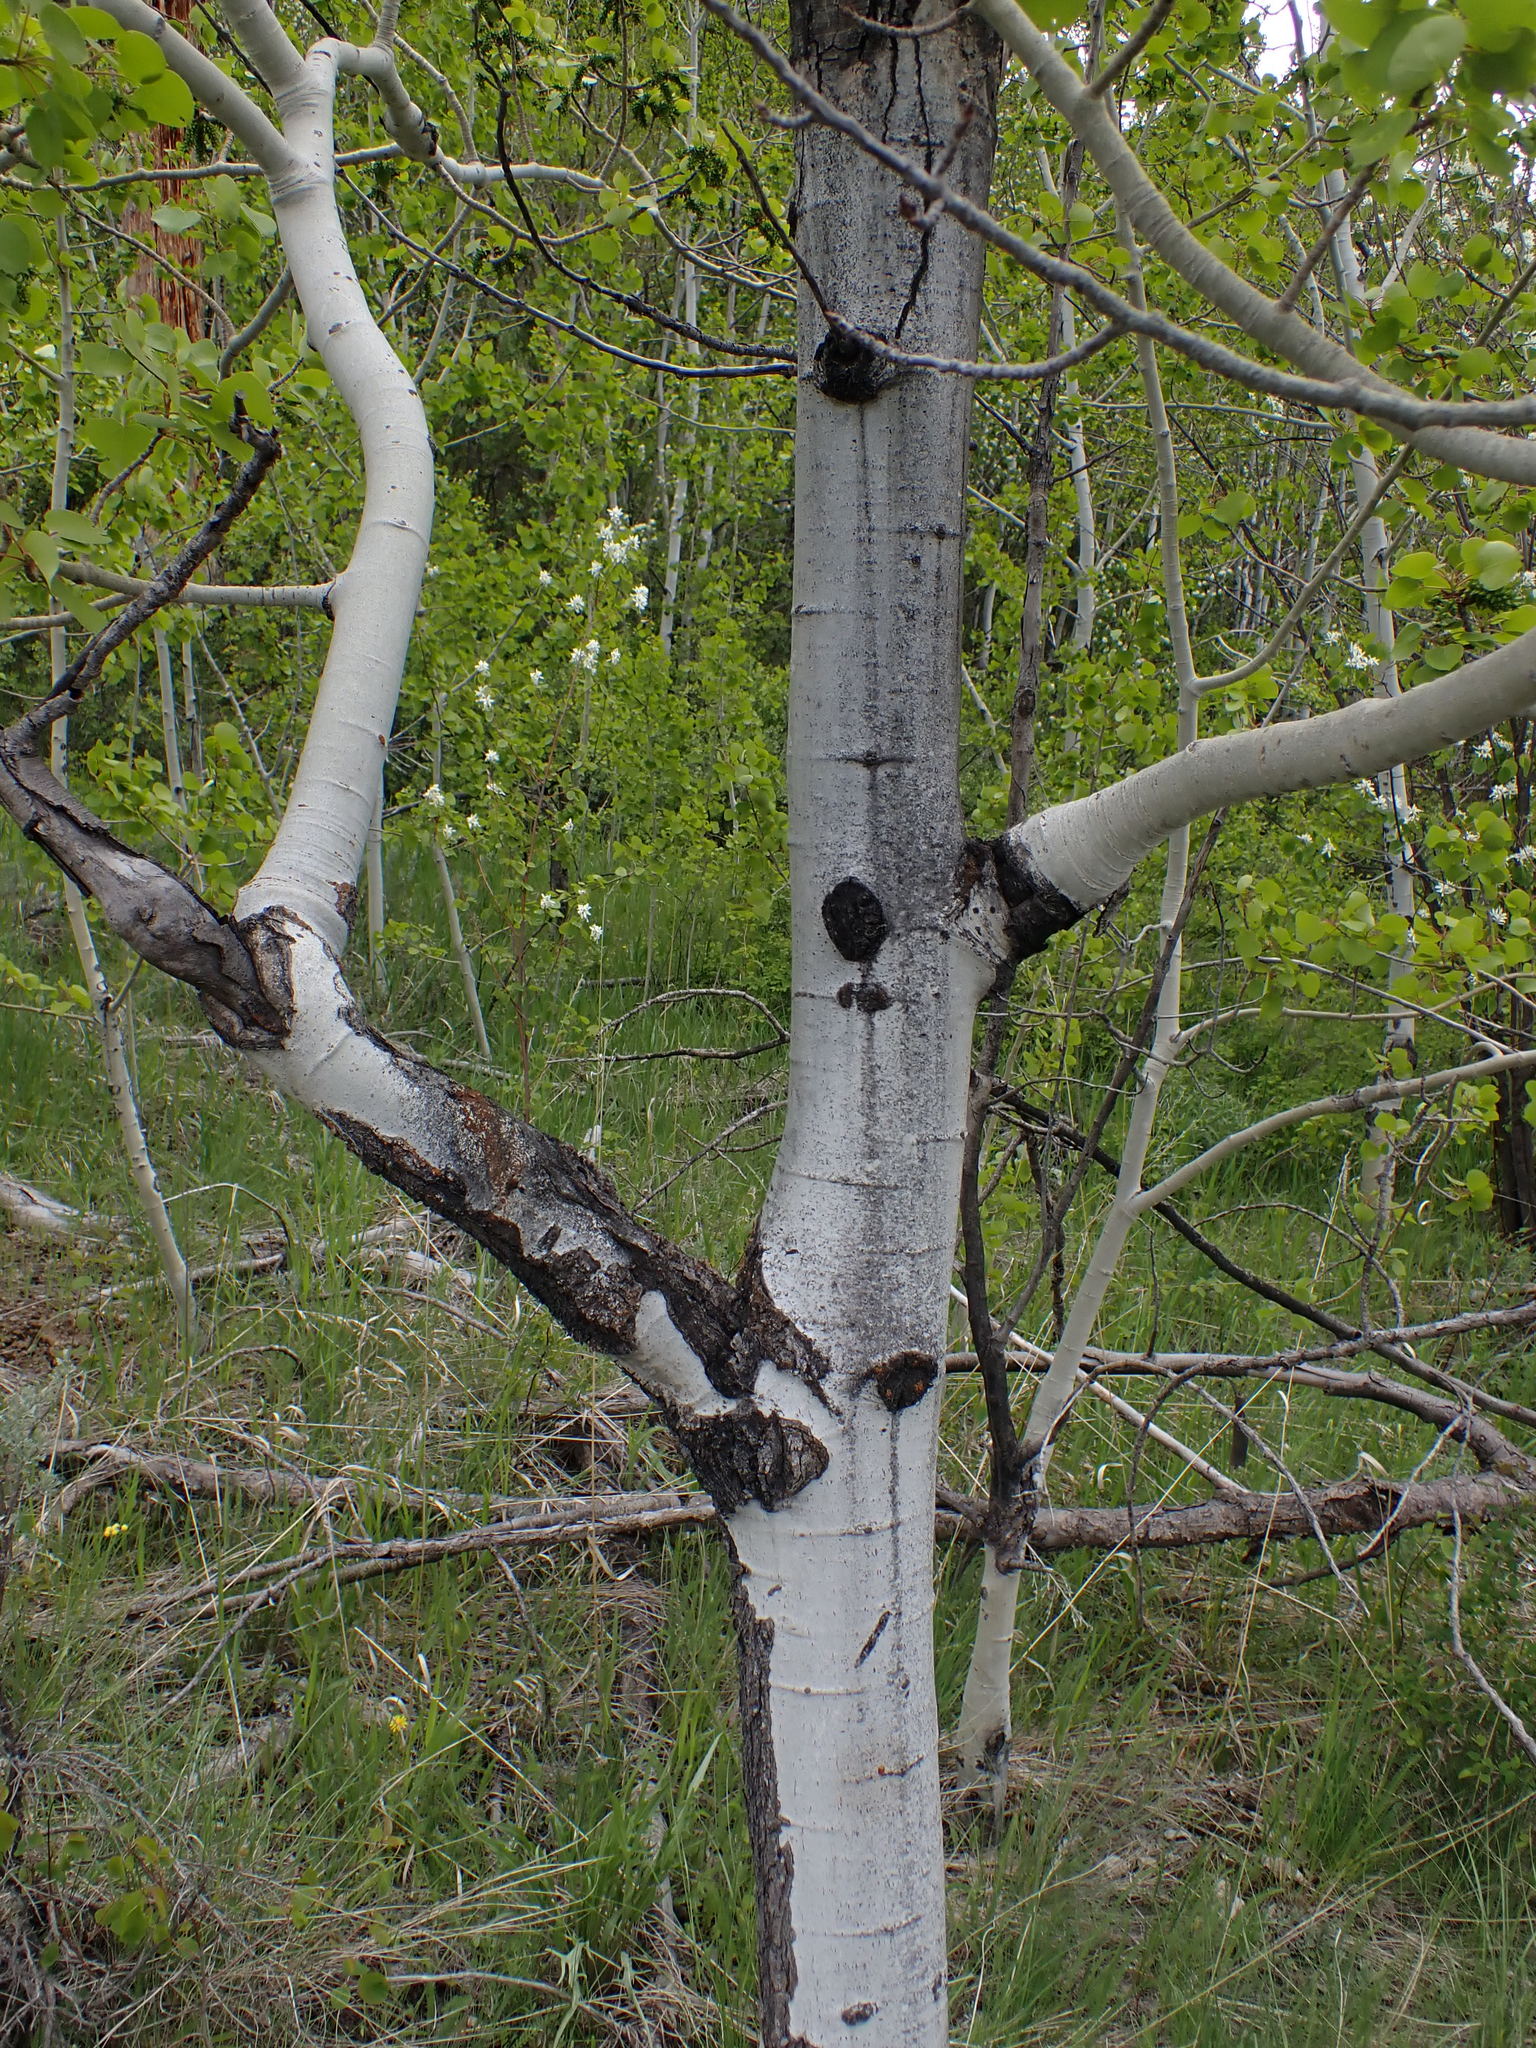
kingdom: Plantae
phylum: Tracheophyta
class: Magnoliopsida
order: Malpighiales
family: Salicaceae
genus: Populus
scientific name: Populus tremuloides
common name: Quaking aspen
